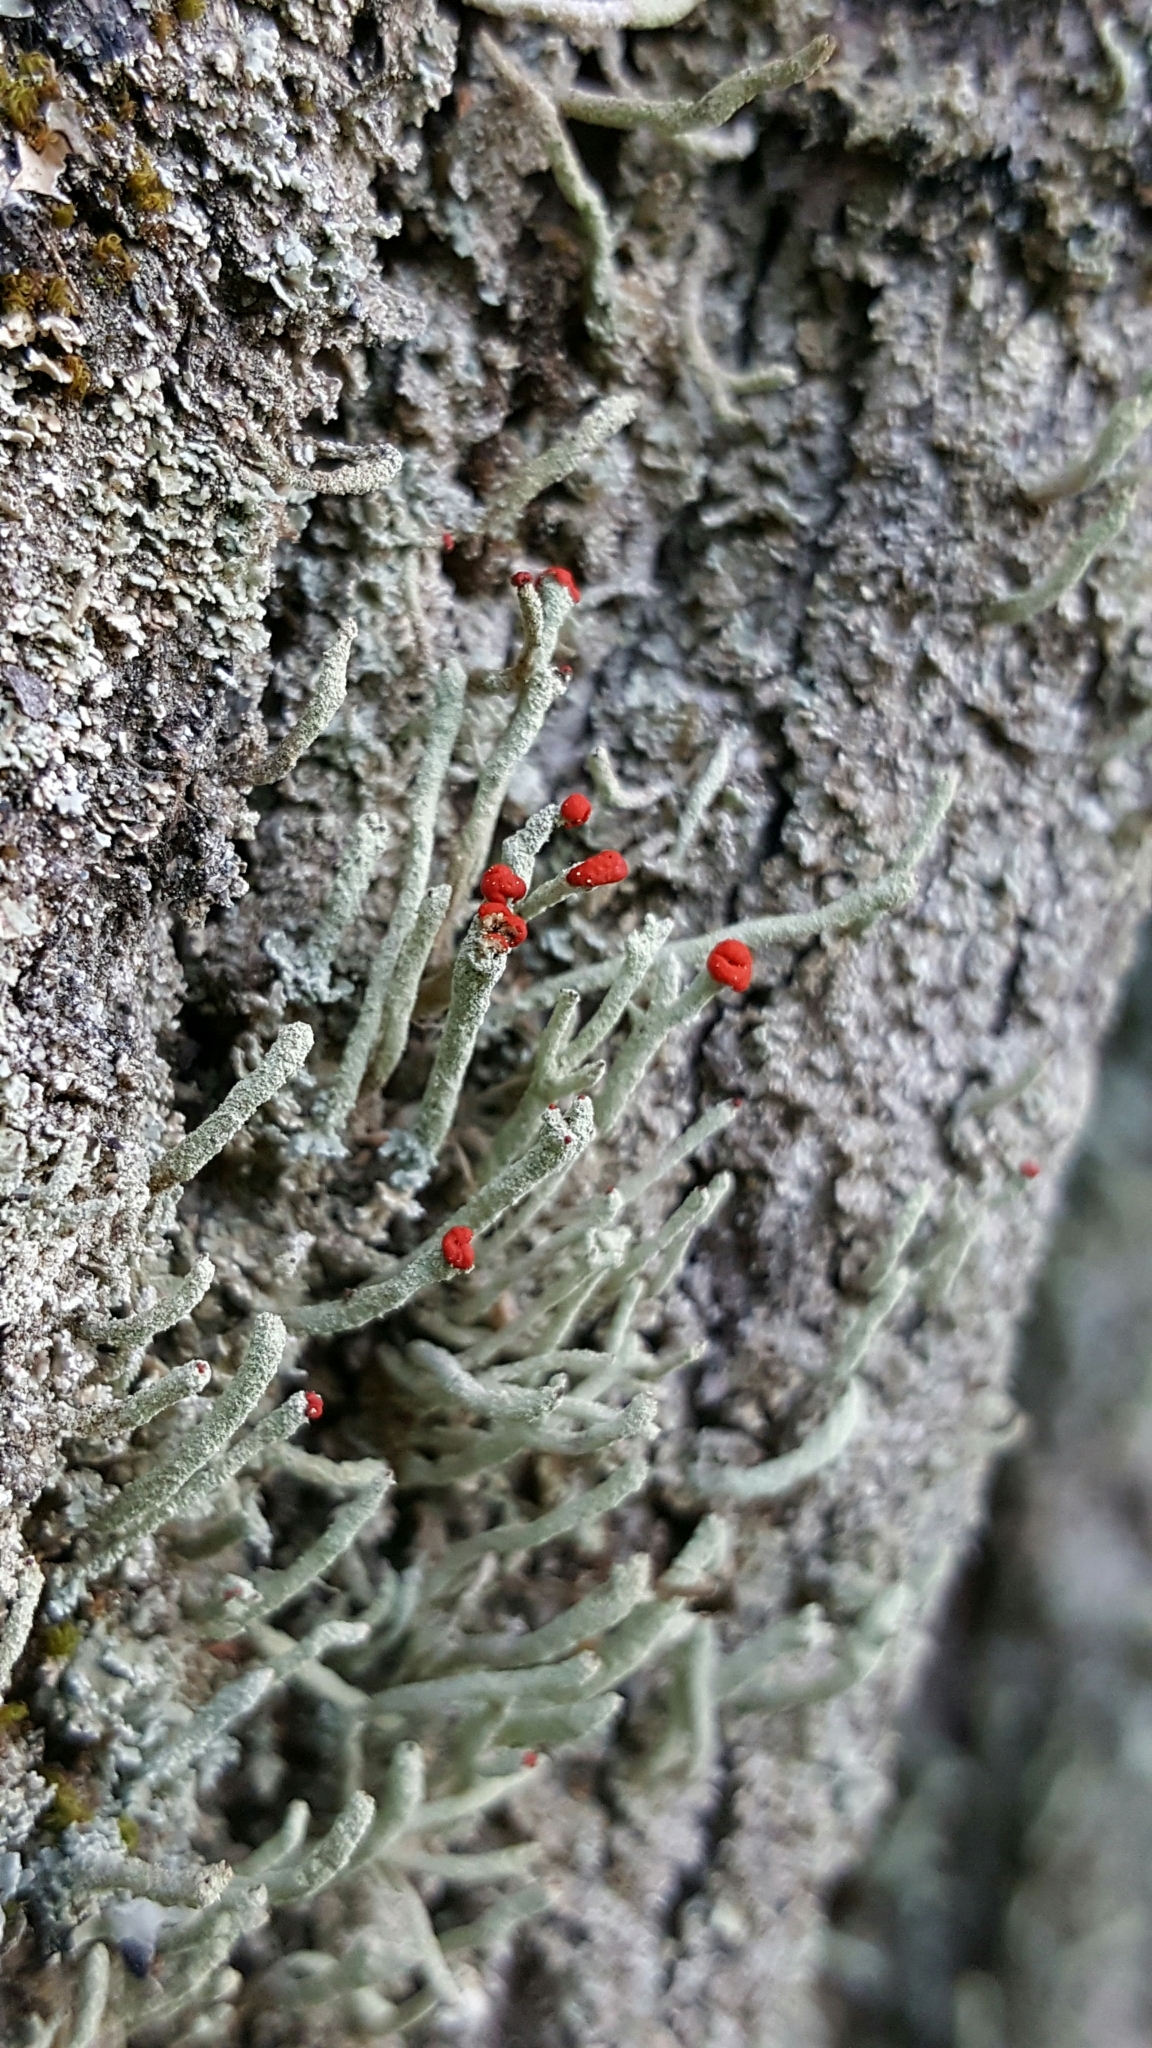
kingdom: Fungi
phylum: Ascomycota
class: Lecanoromycetes
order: Lecanorales
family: Cladoniaceae
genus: Cladonia
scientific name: Cladonia macilenta
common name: Lipstick powderhorn
